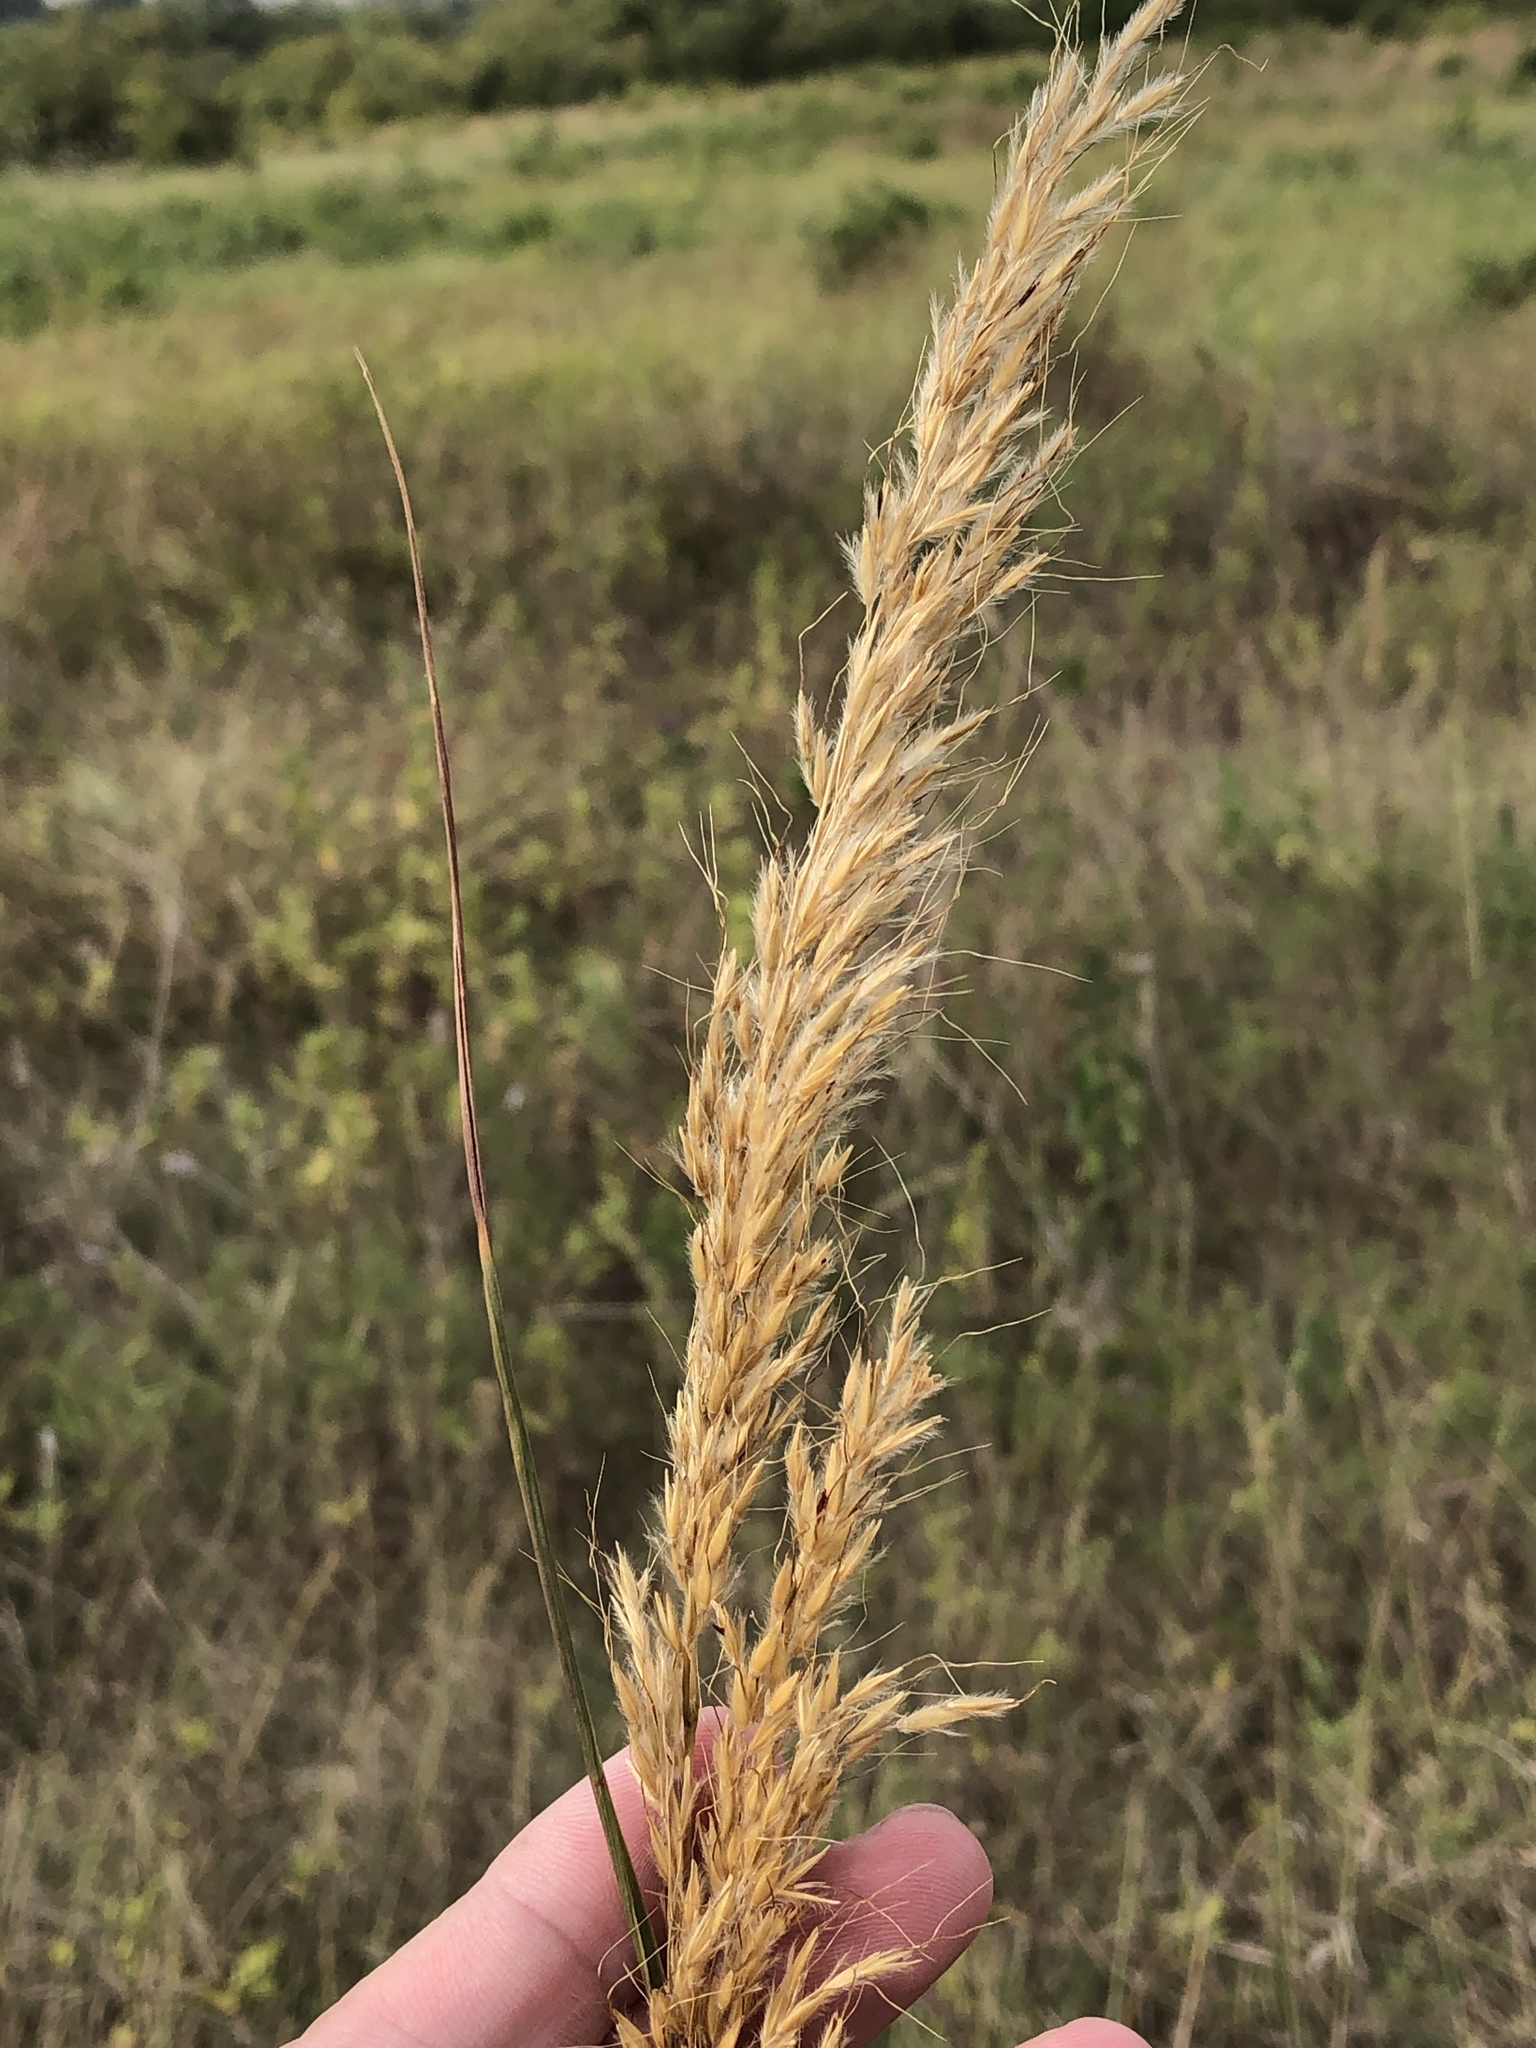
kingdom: Plantae
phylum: Tracheophyta
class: Liliopsida
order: Poales
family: Poaceae
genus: Sorghastrum
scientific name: Sorghastrum nutans
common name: Indian grass
